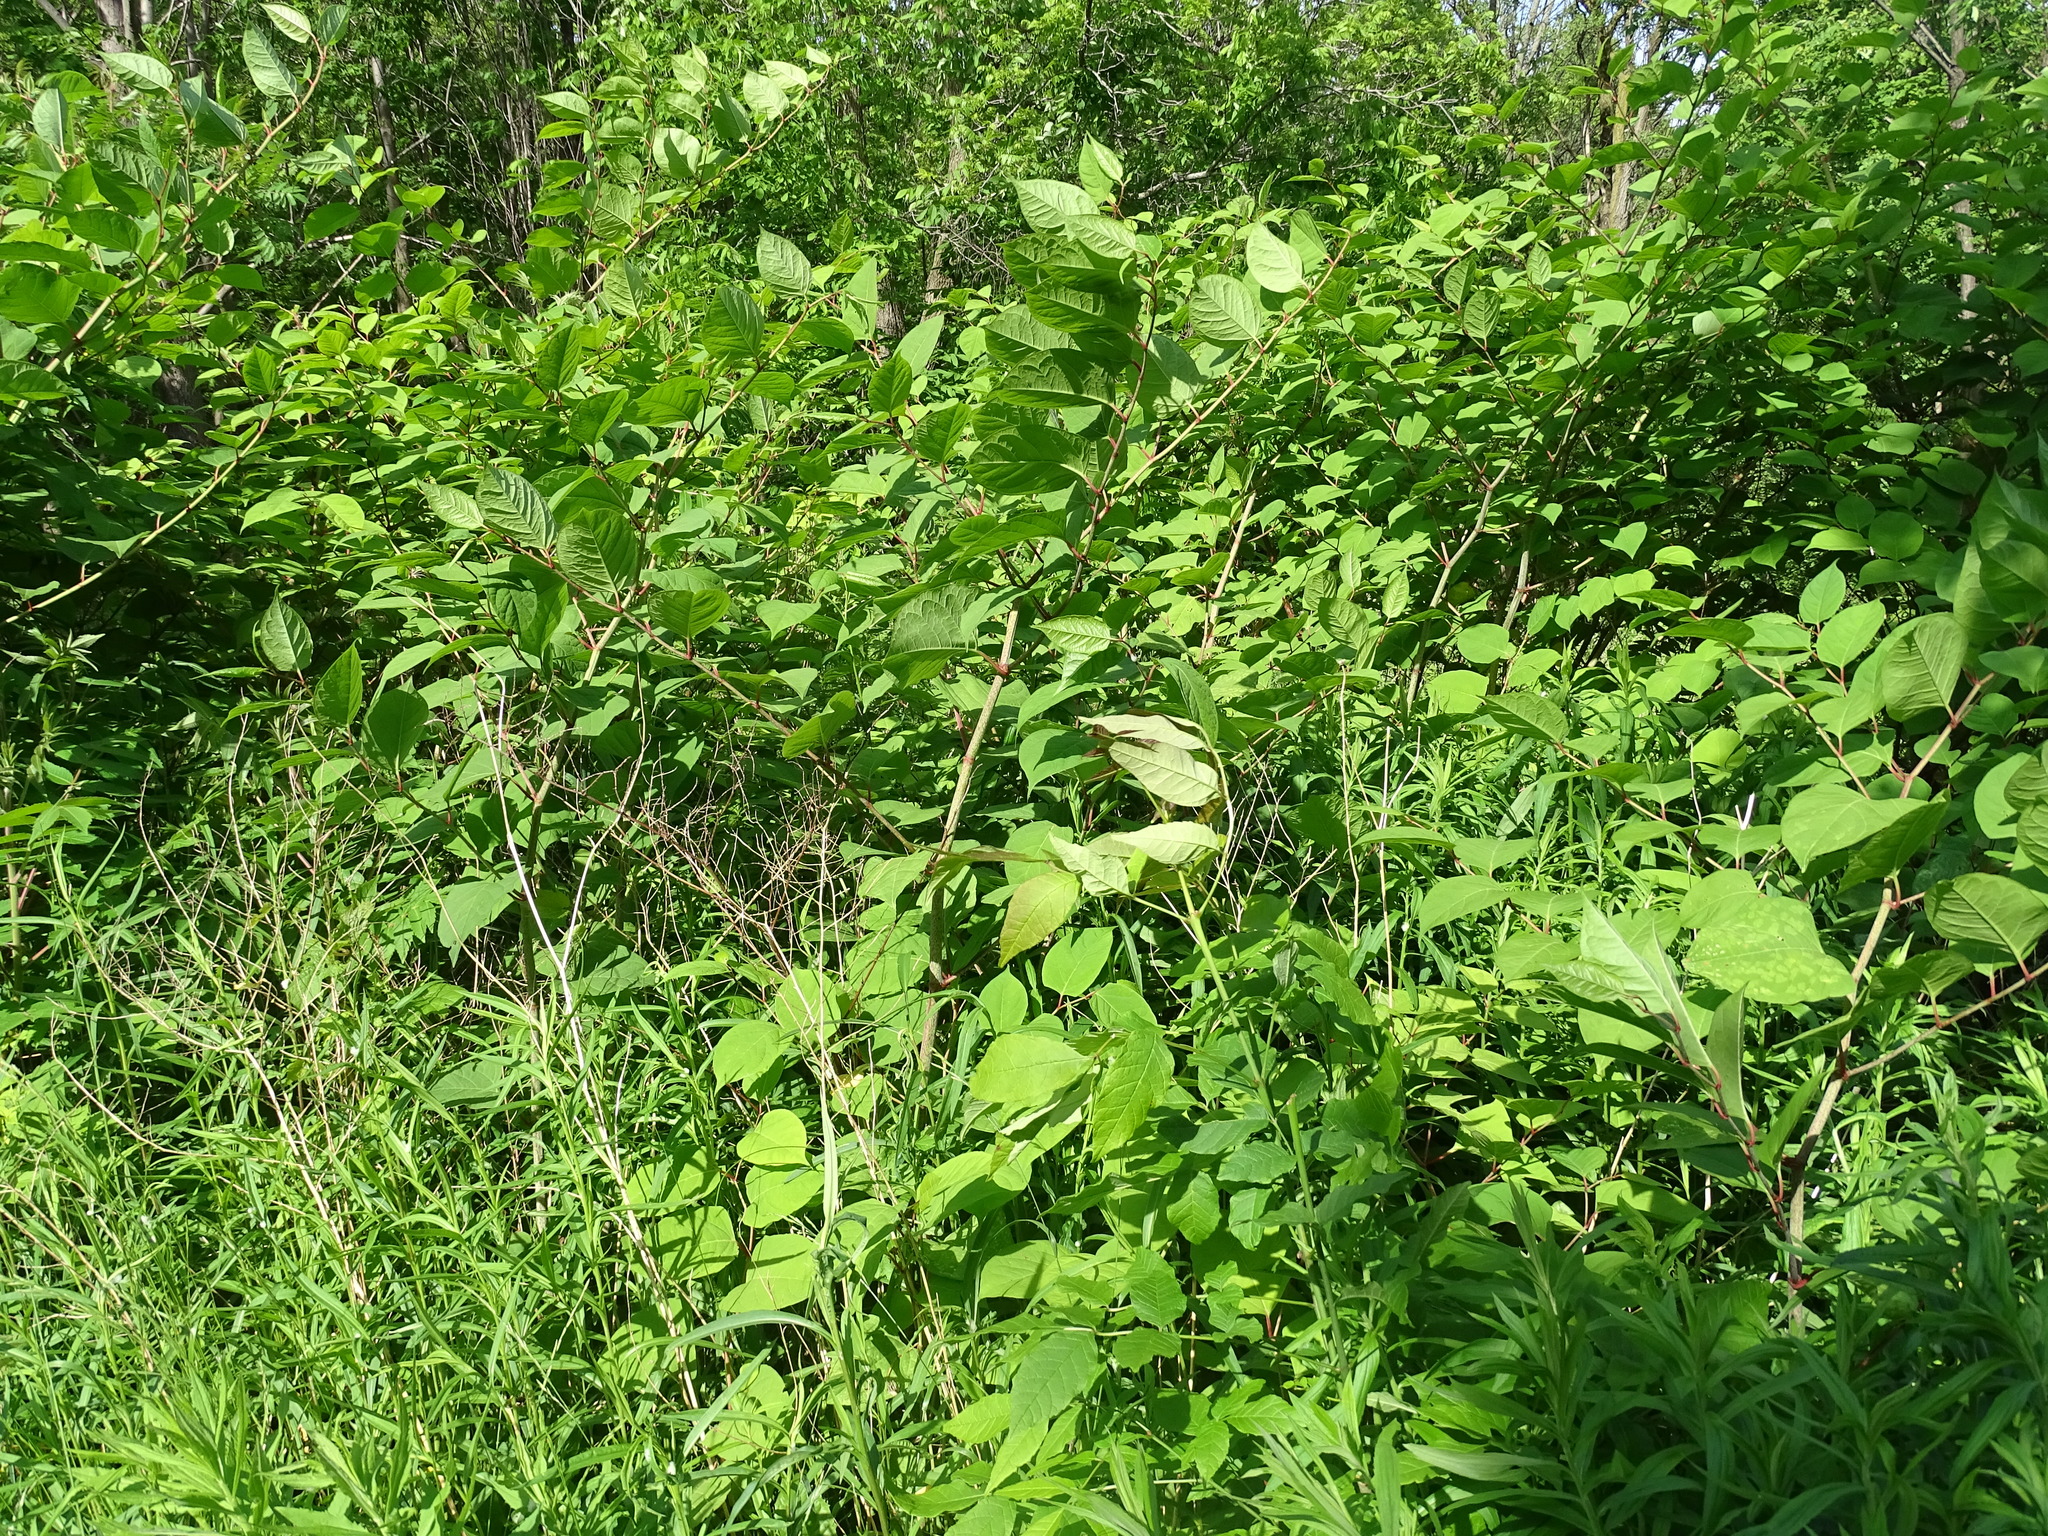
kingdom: Plantae
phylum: Tracheophyta
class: Magnoliopsida
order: Caryophyllales
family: Polygonaceae
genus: Reynoutria
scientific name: Reynoutria japonica
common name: Japanese knotweed
